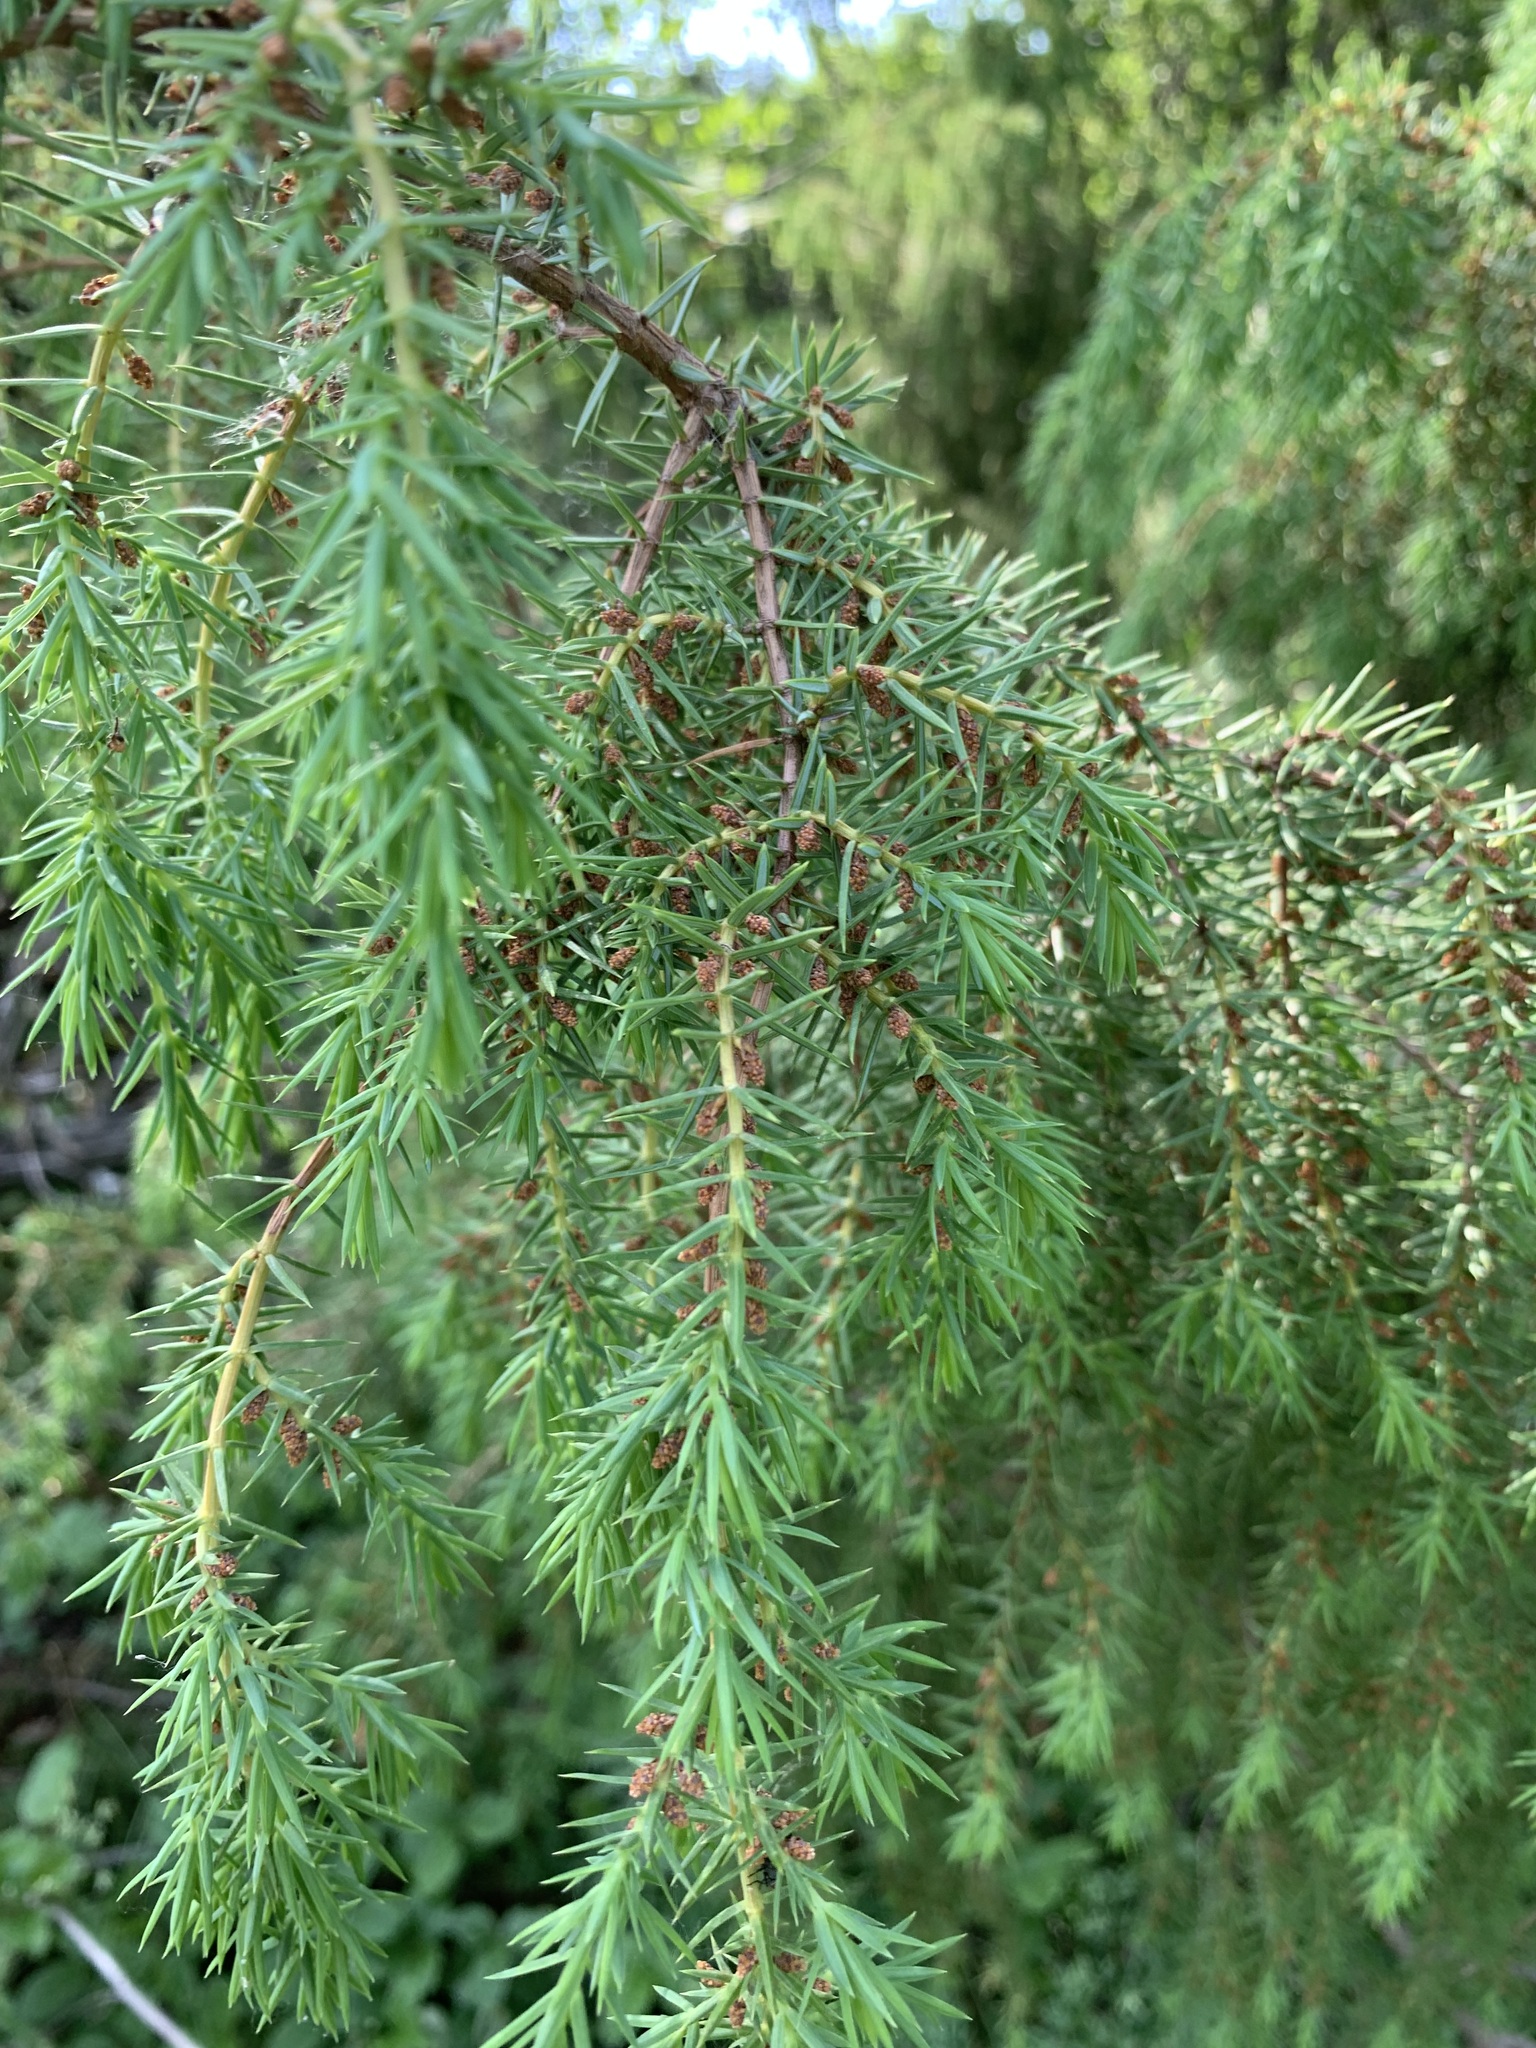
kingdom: Plantae
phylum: Tracheophyta
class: Pinopsida
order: Pinales
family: Cupressaceae
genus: Juniperus
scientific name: Juniperus communis
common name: Common juniper
